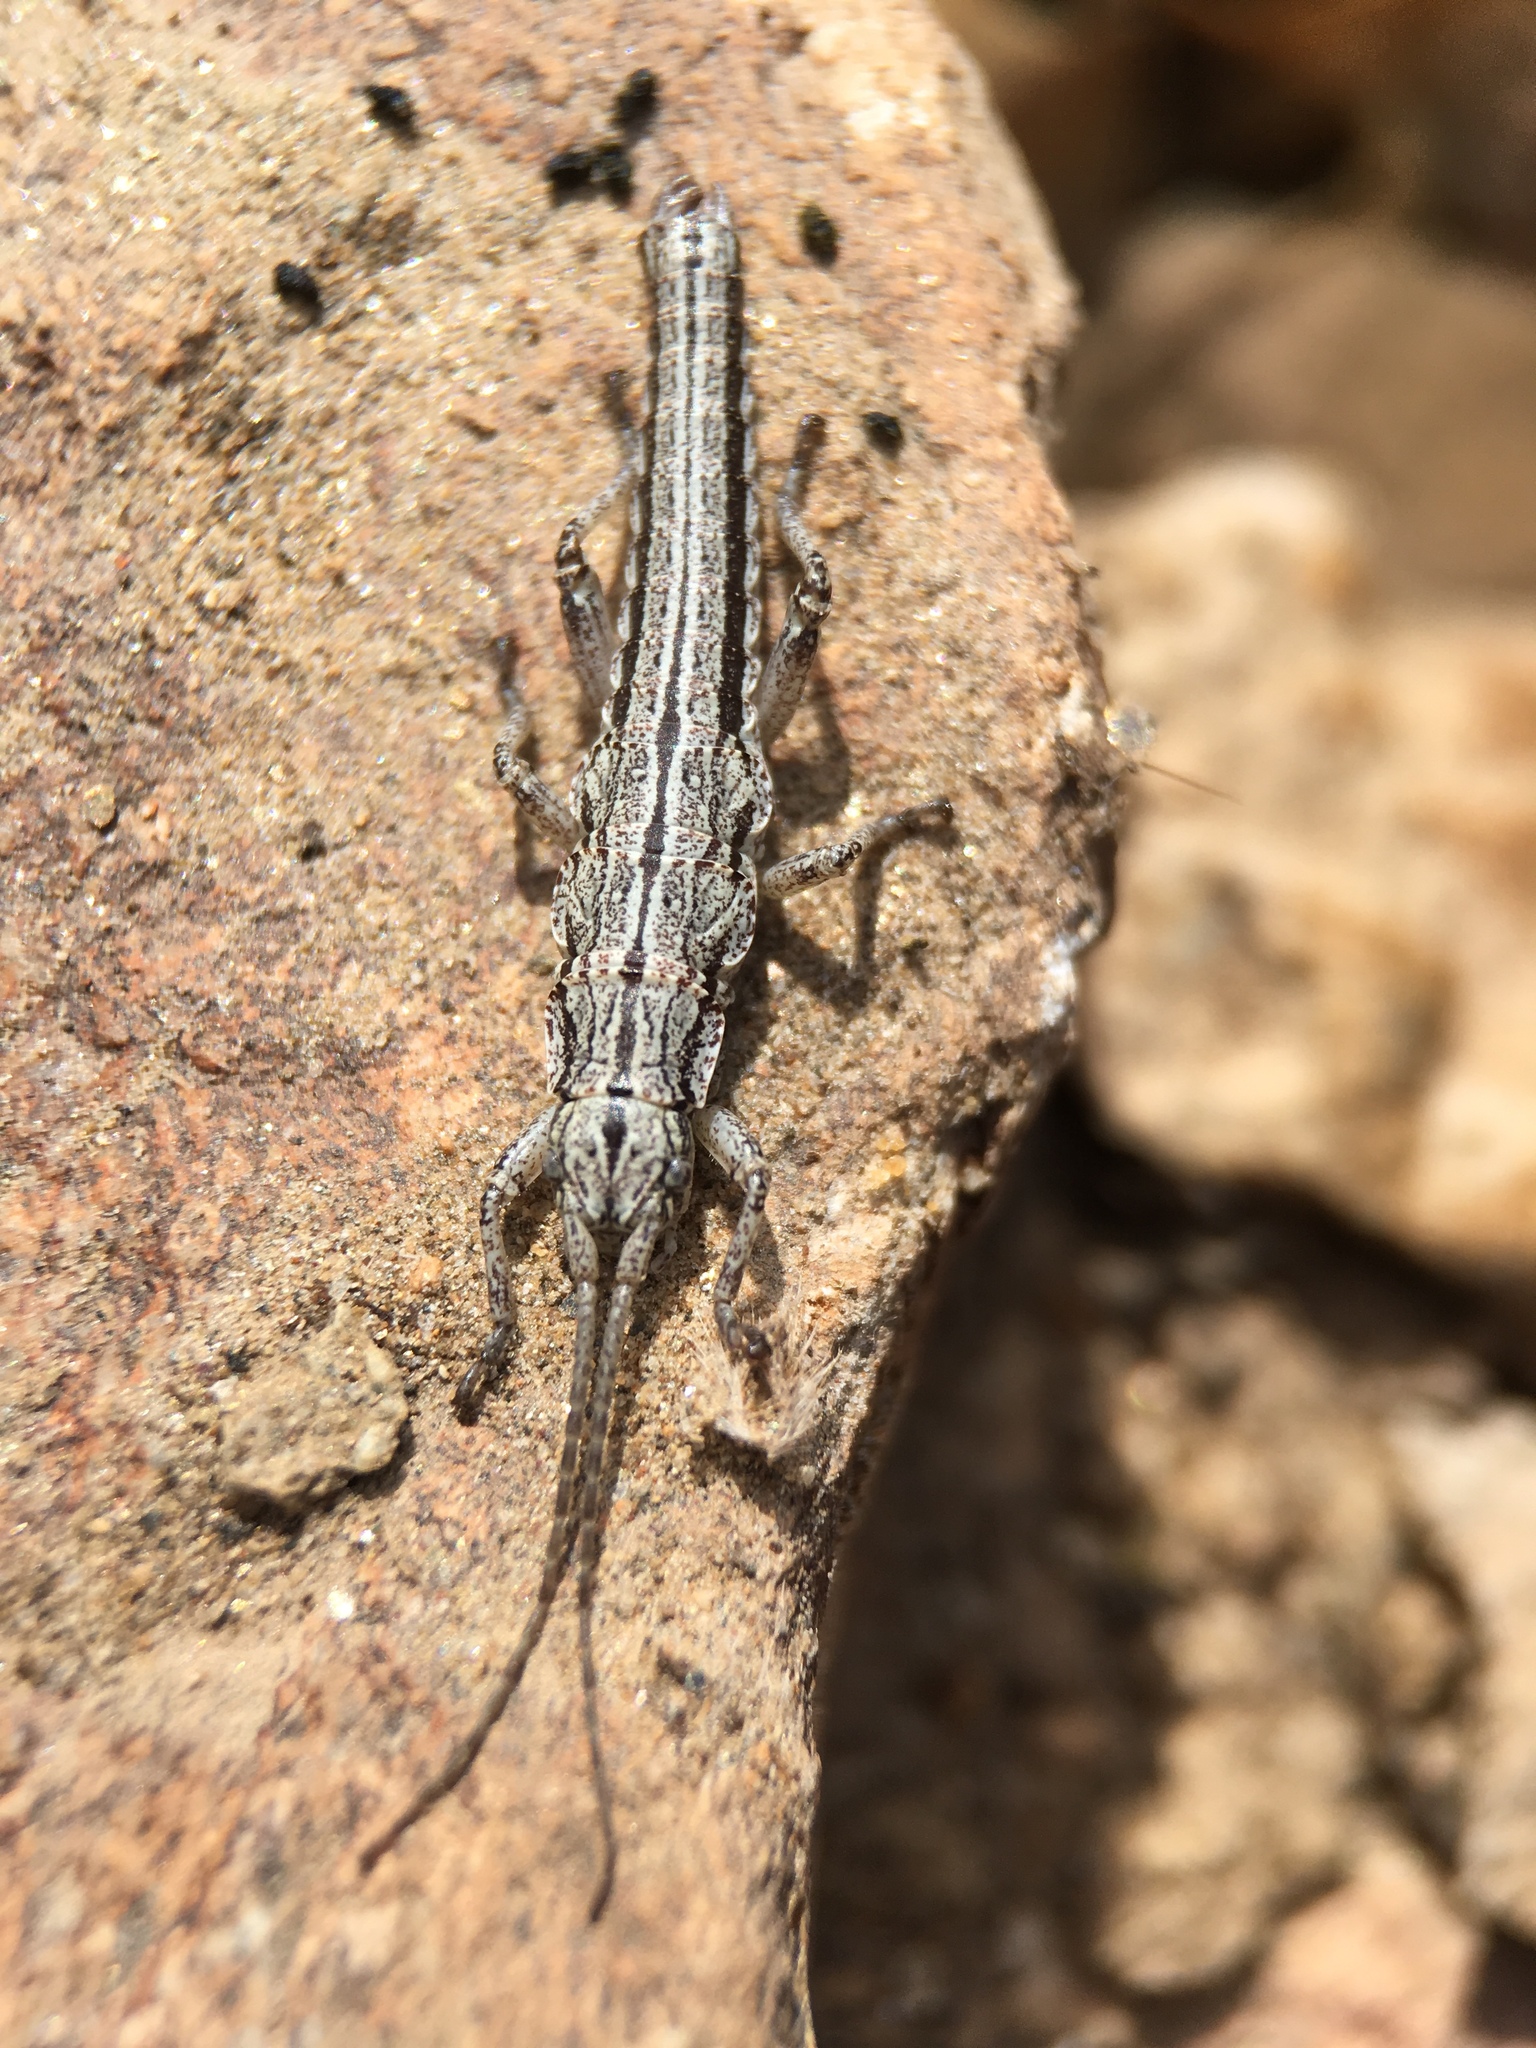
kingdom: Animalia
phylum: Arthropoda
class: Insecta
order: Phasmida
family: Timematidae
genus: Timema
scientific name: Timema boharti
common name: Bohart's timema
